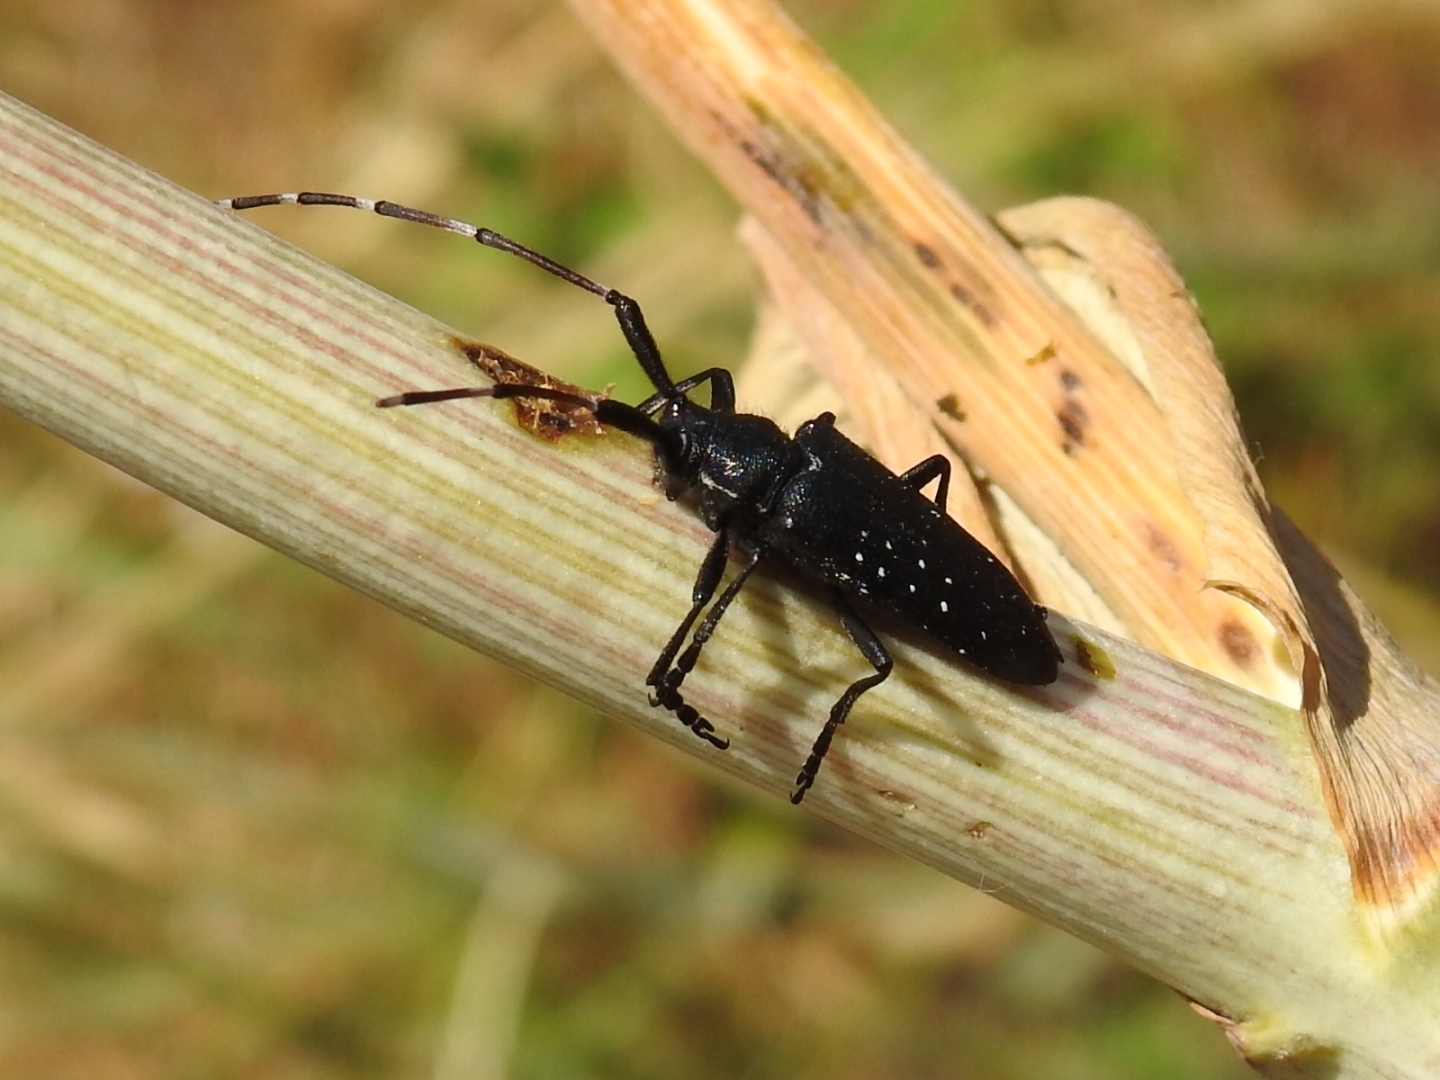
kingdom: Animalia
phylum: Arthropoda
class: Insecta
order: Coleoptera
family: Cerambycidae
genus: Agapanthia
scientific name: Agapanthia irrorata
